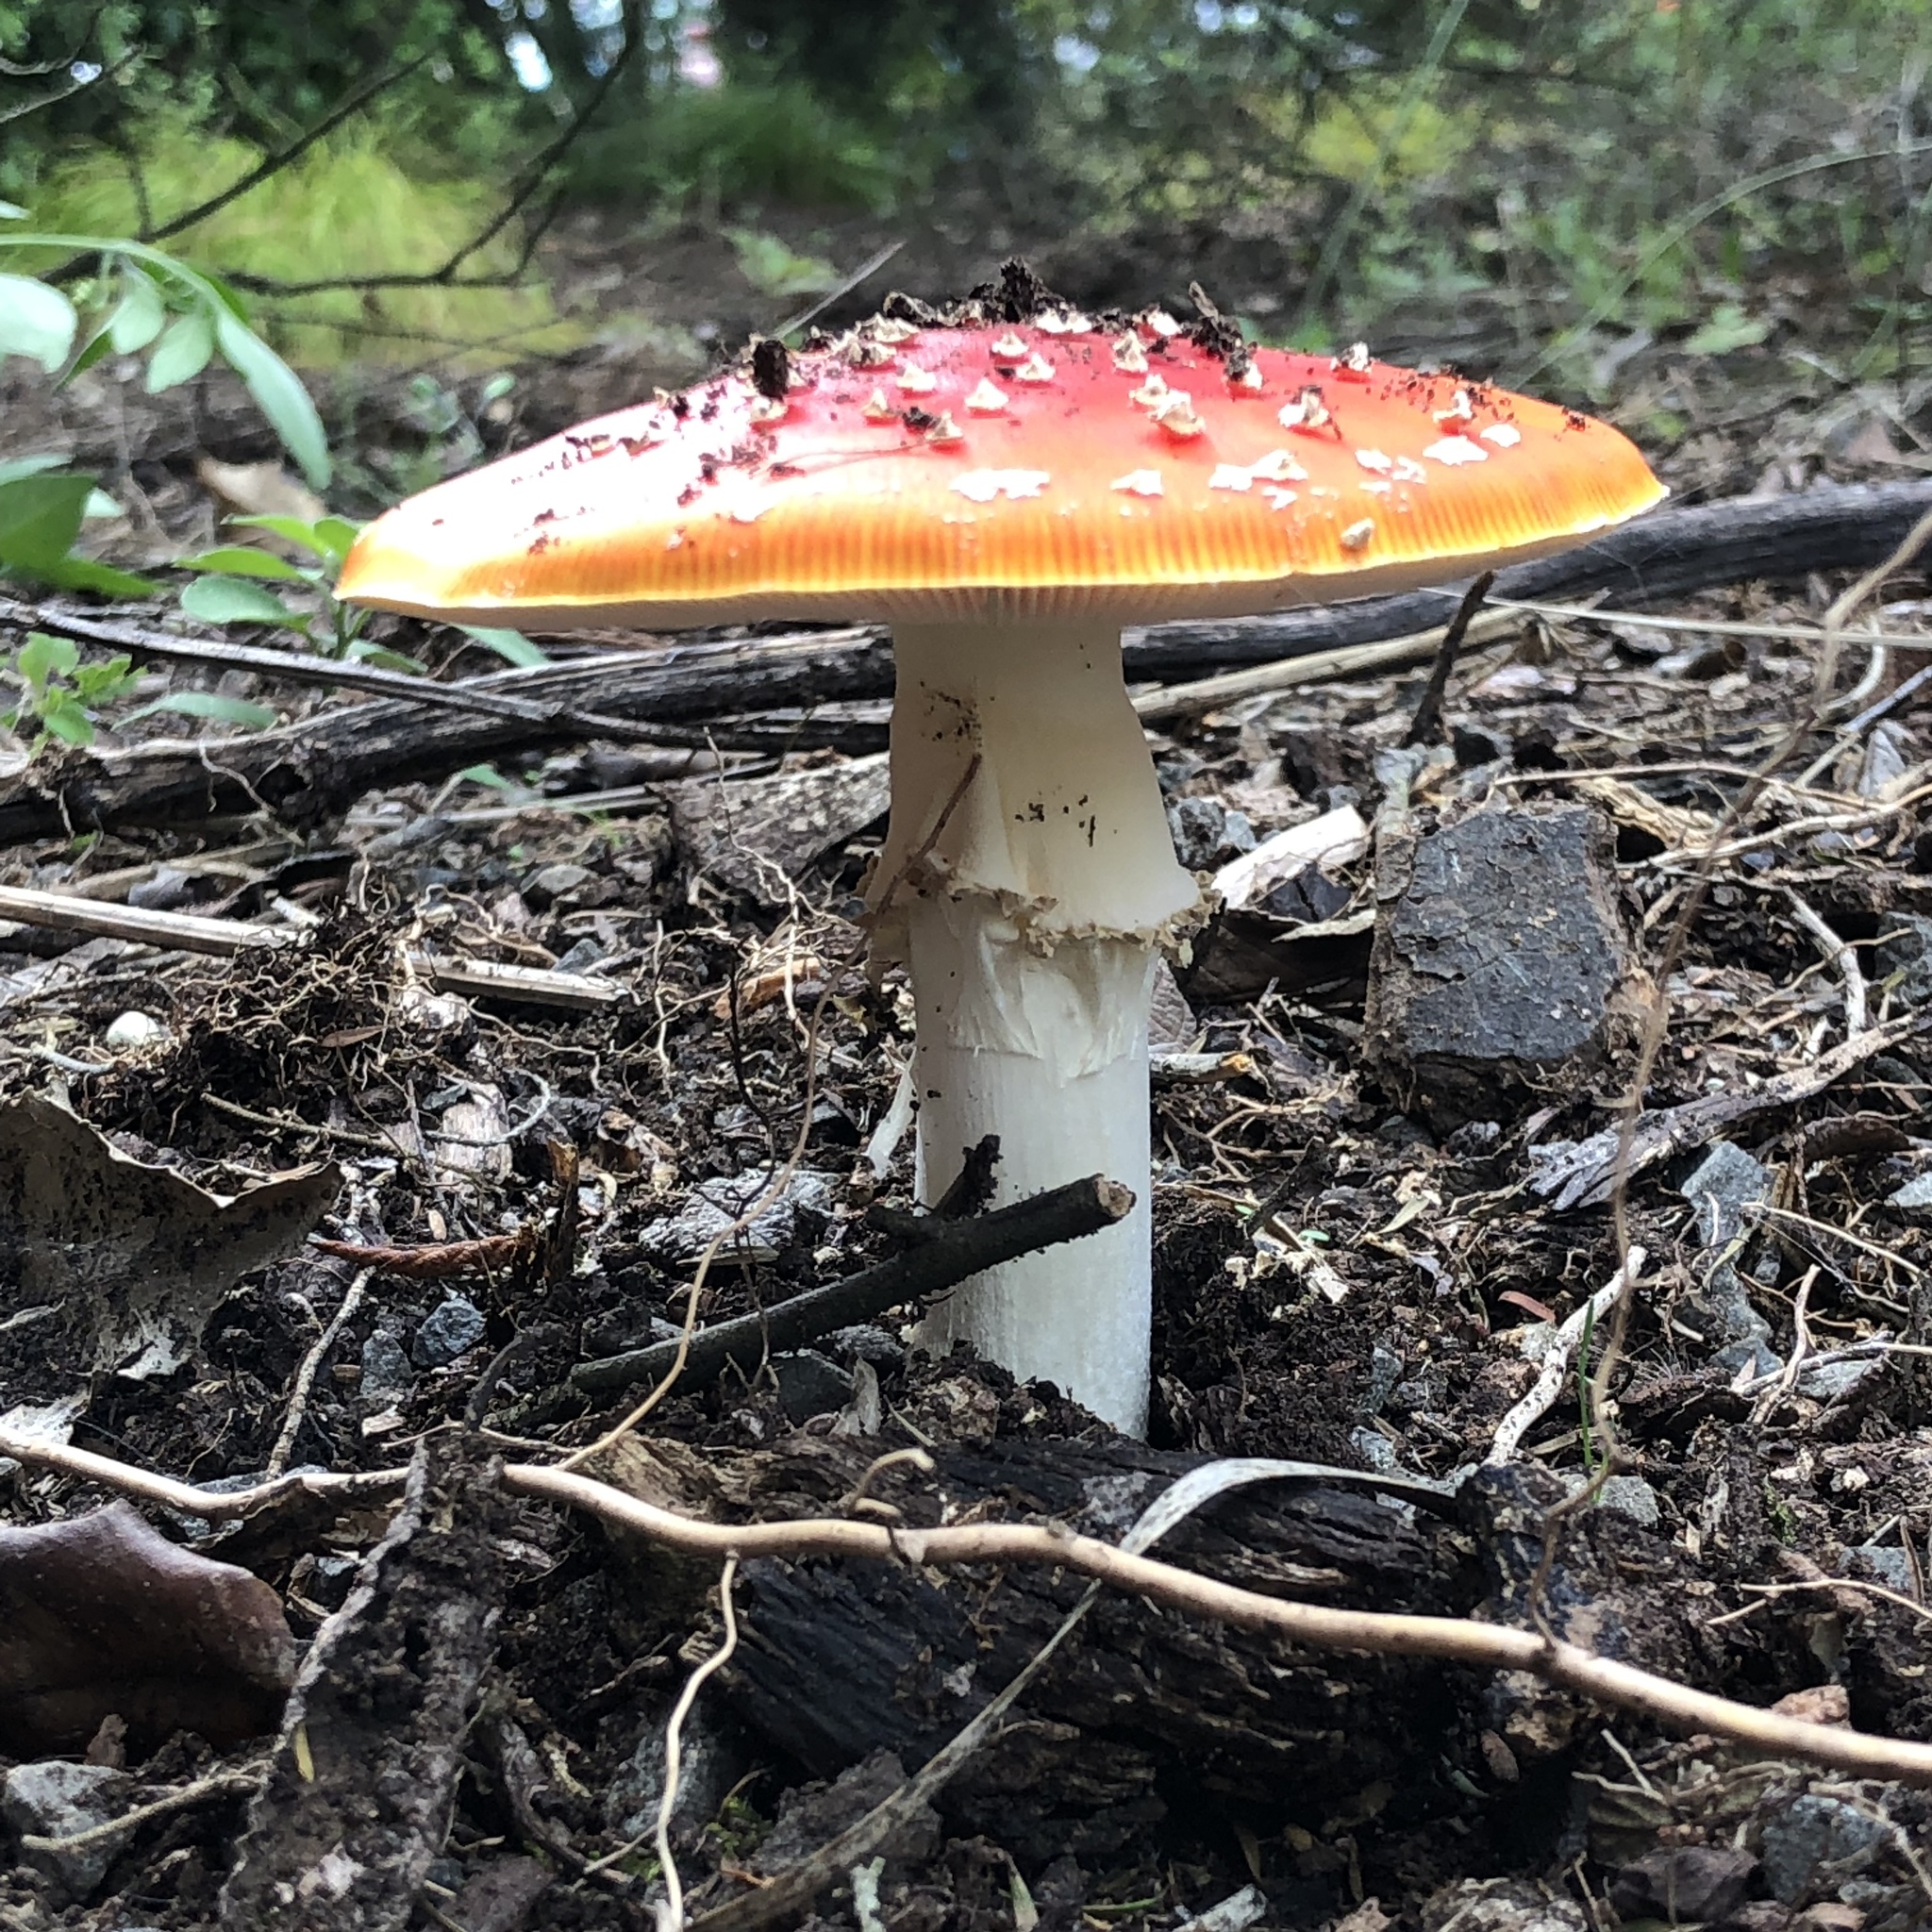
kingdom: Fungi
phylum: Basidiomycota
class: Agaricomycetes
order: Agaricales
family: Amanitaceae
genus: Amanita
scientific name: Amanita muscaria
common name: Fly agaric
